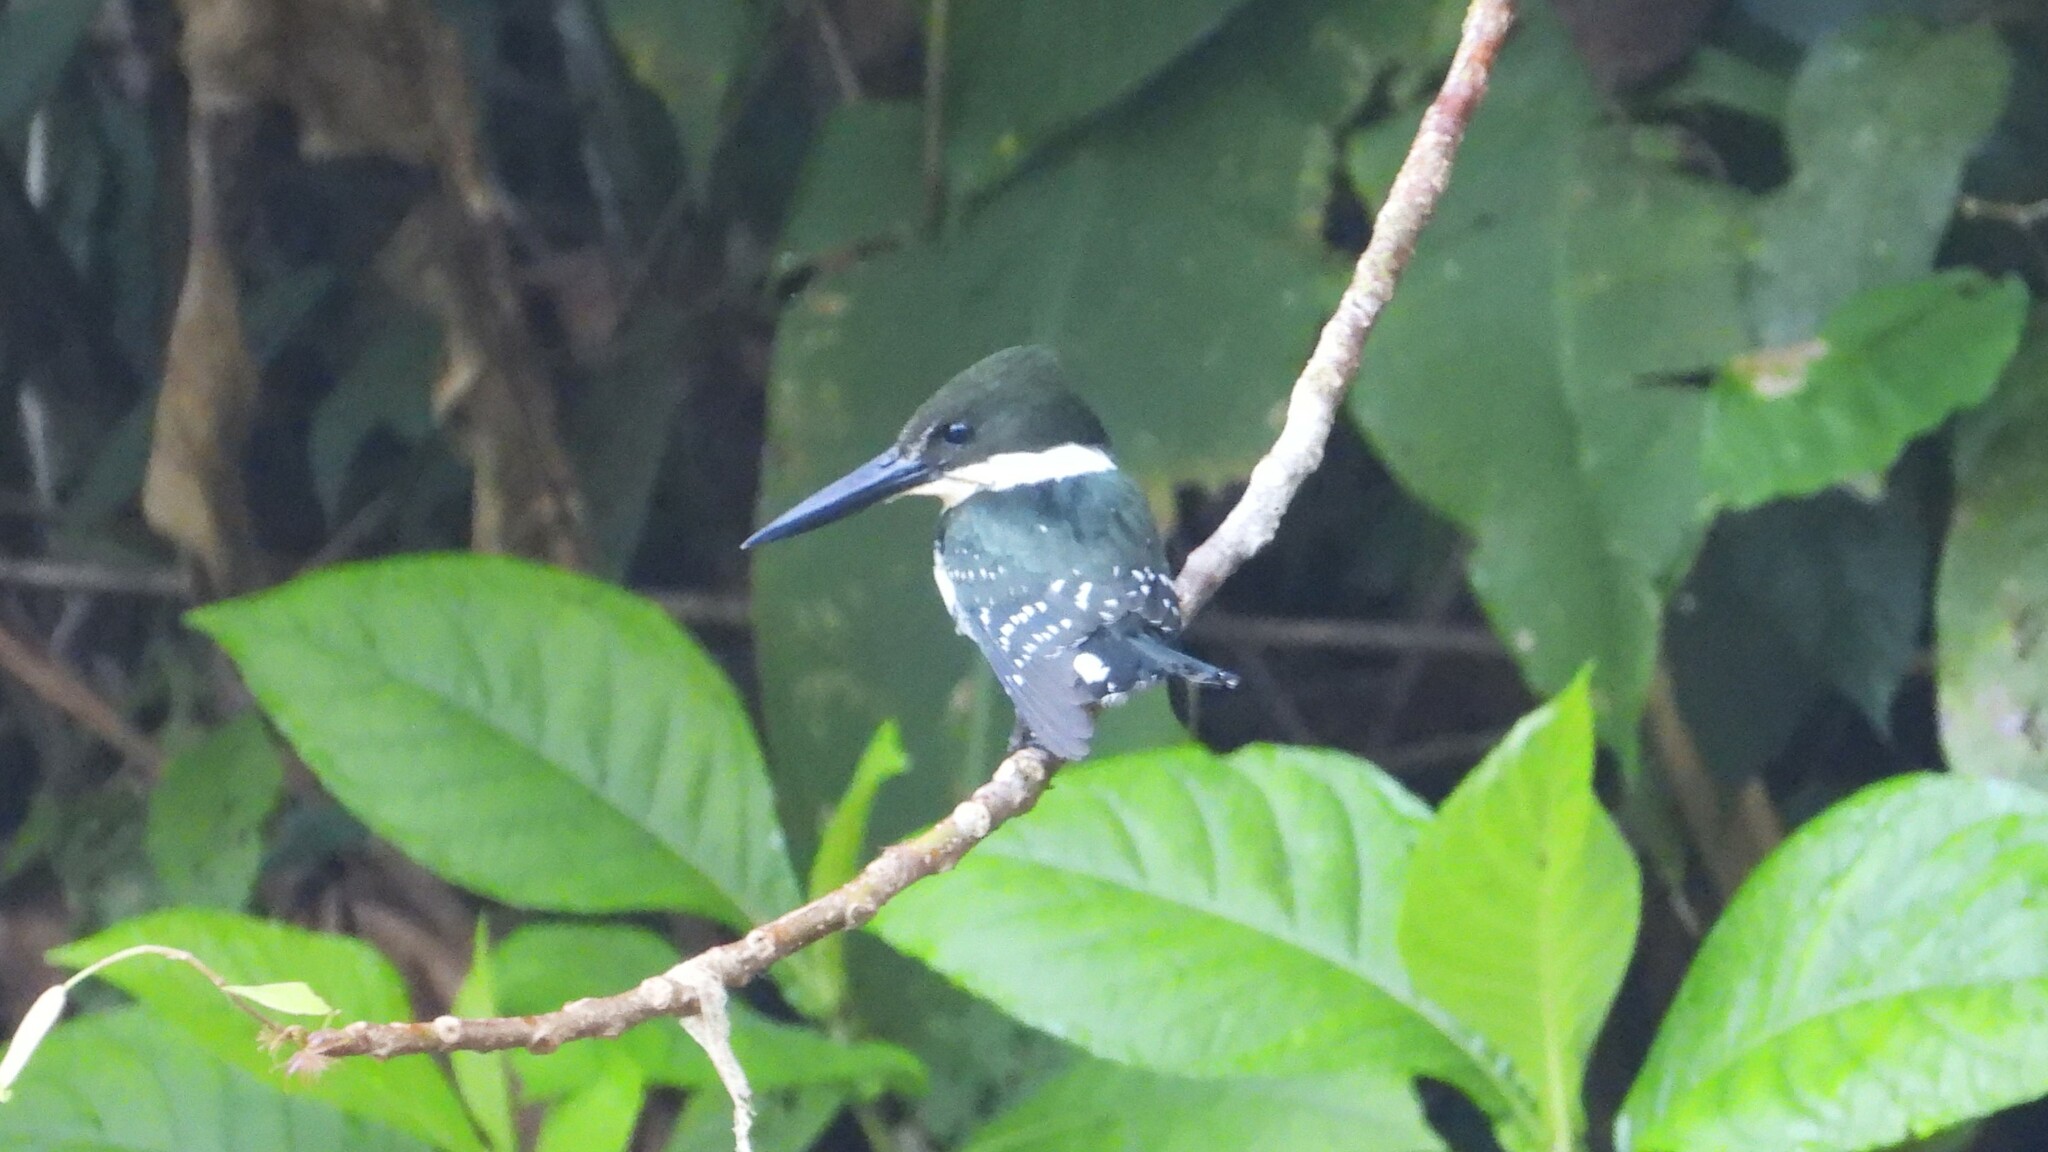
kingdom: Animalia
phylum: Chordata
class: Aves
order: Coraciiformes
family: Alcedinidae
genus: Chloroceryle
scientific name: Chloroceryle americana
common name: Green kingfisher
